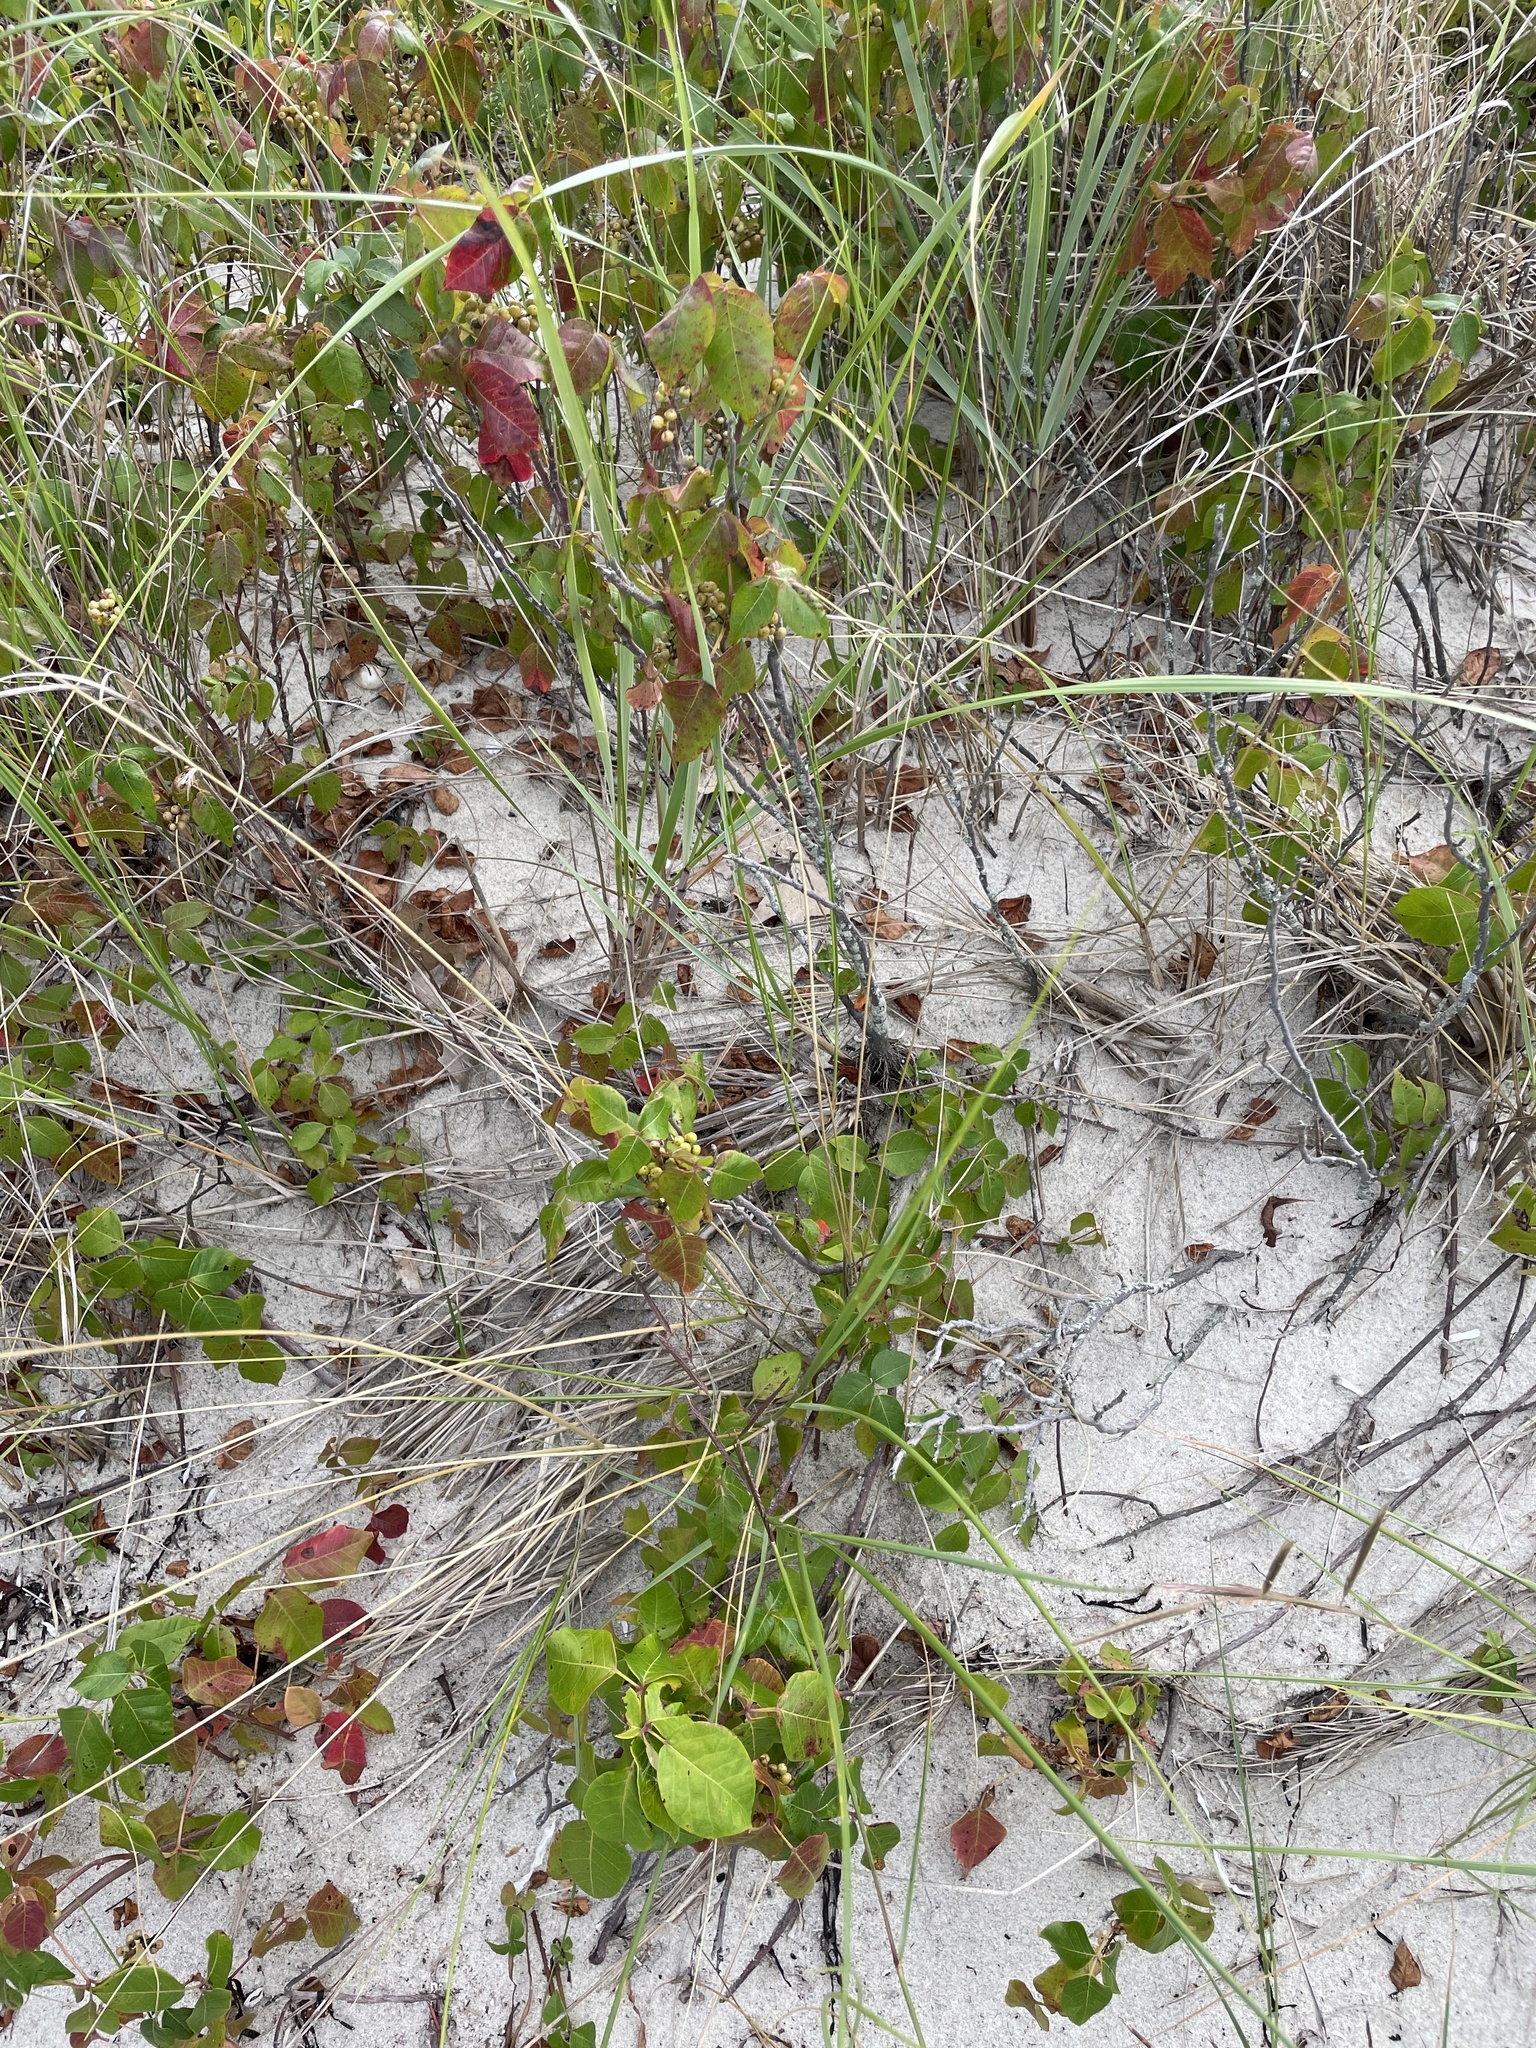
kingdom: Plantae
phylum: Tracheophyta
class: Magnoliopsida
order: Sapindales
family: Anacardiaceae
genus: Toxicodendron
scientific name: Toxicodendron radicans
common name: Poison ivy
